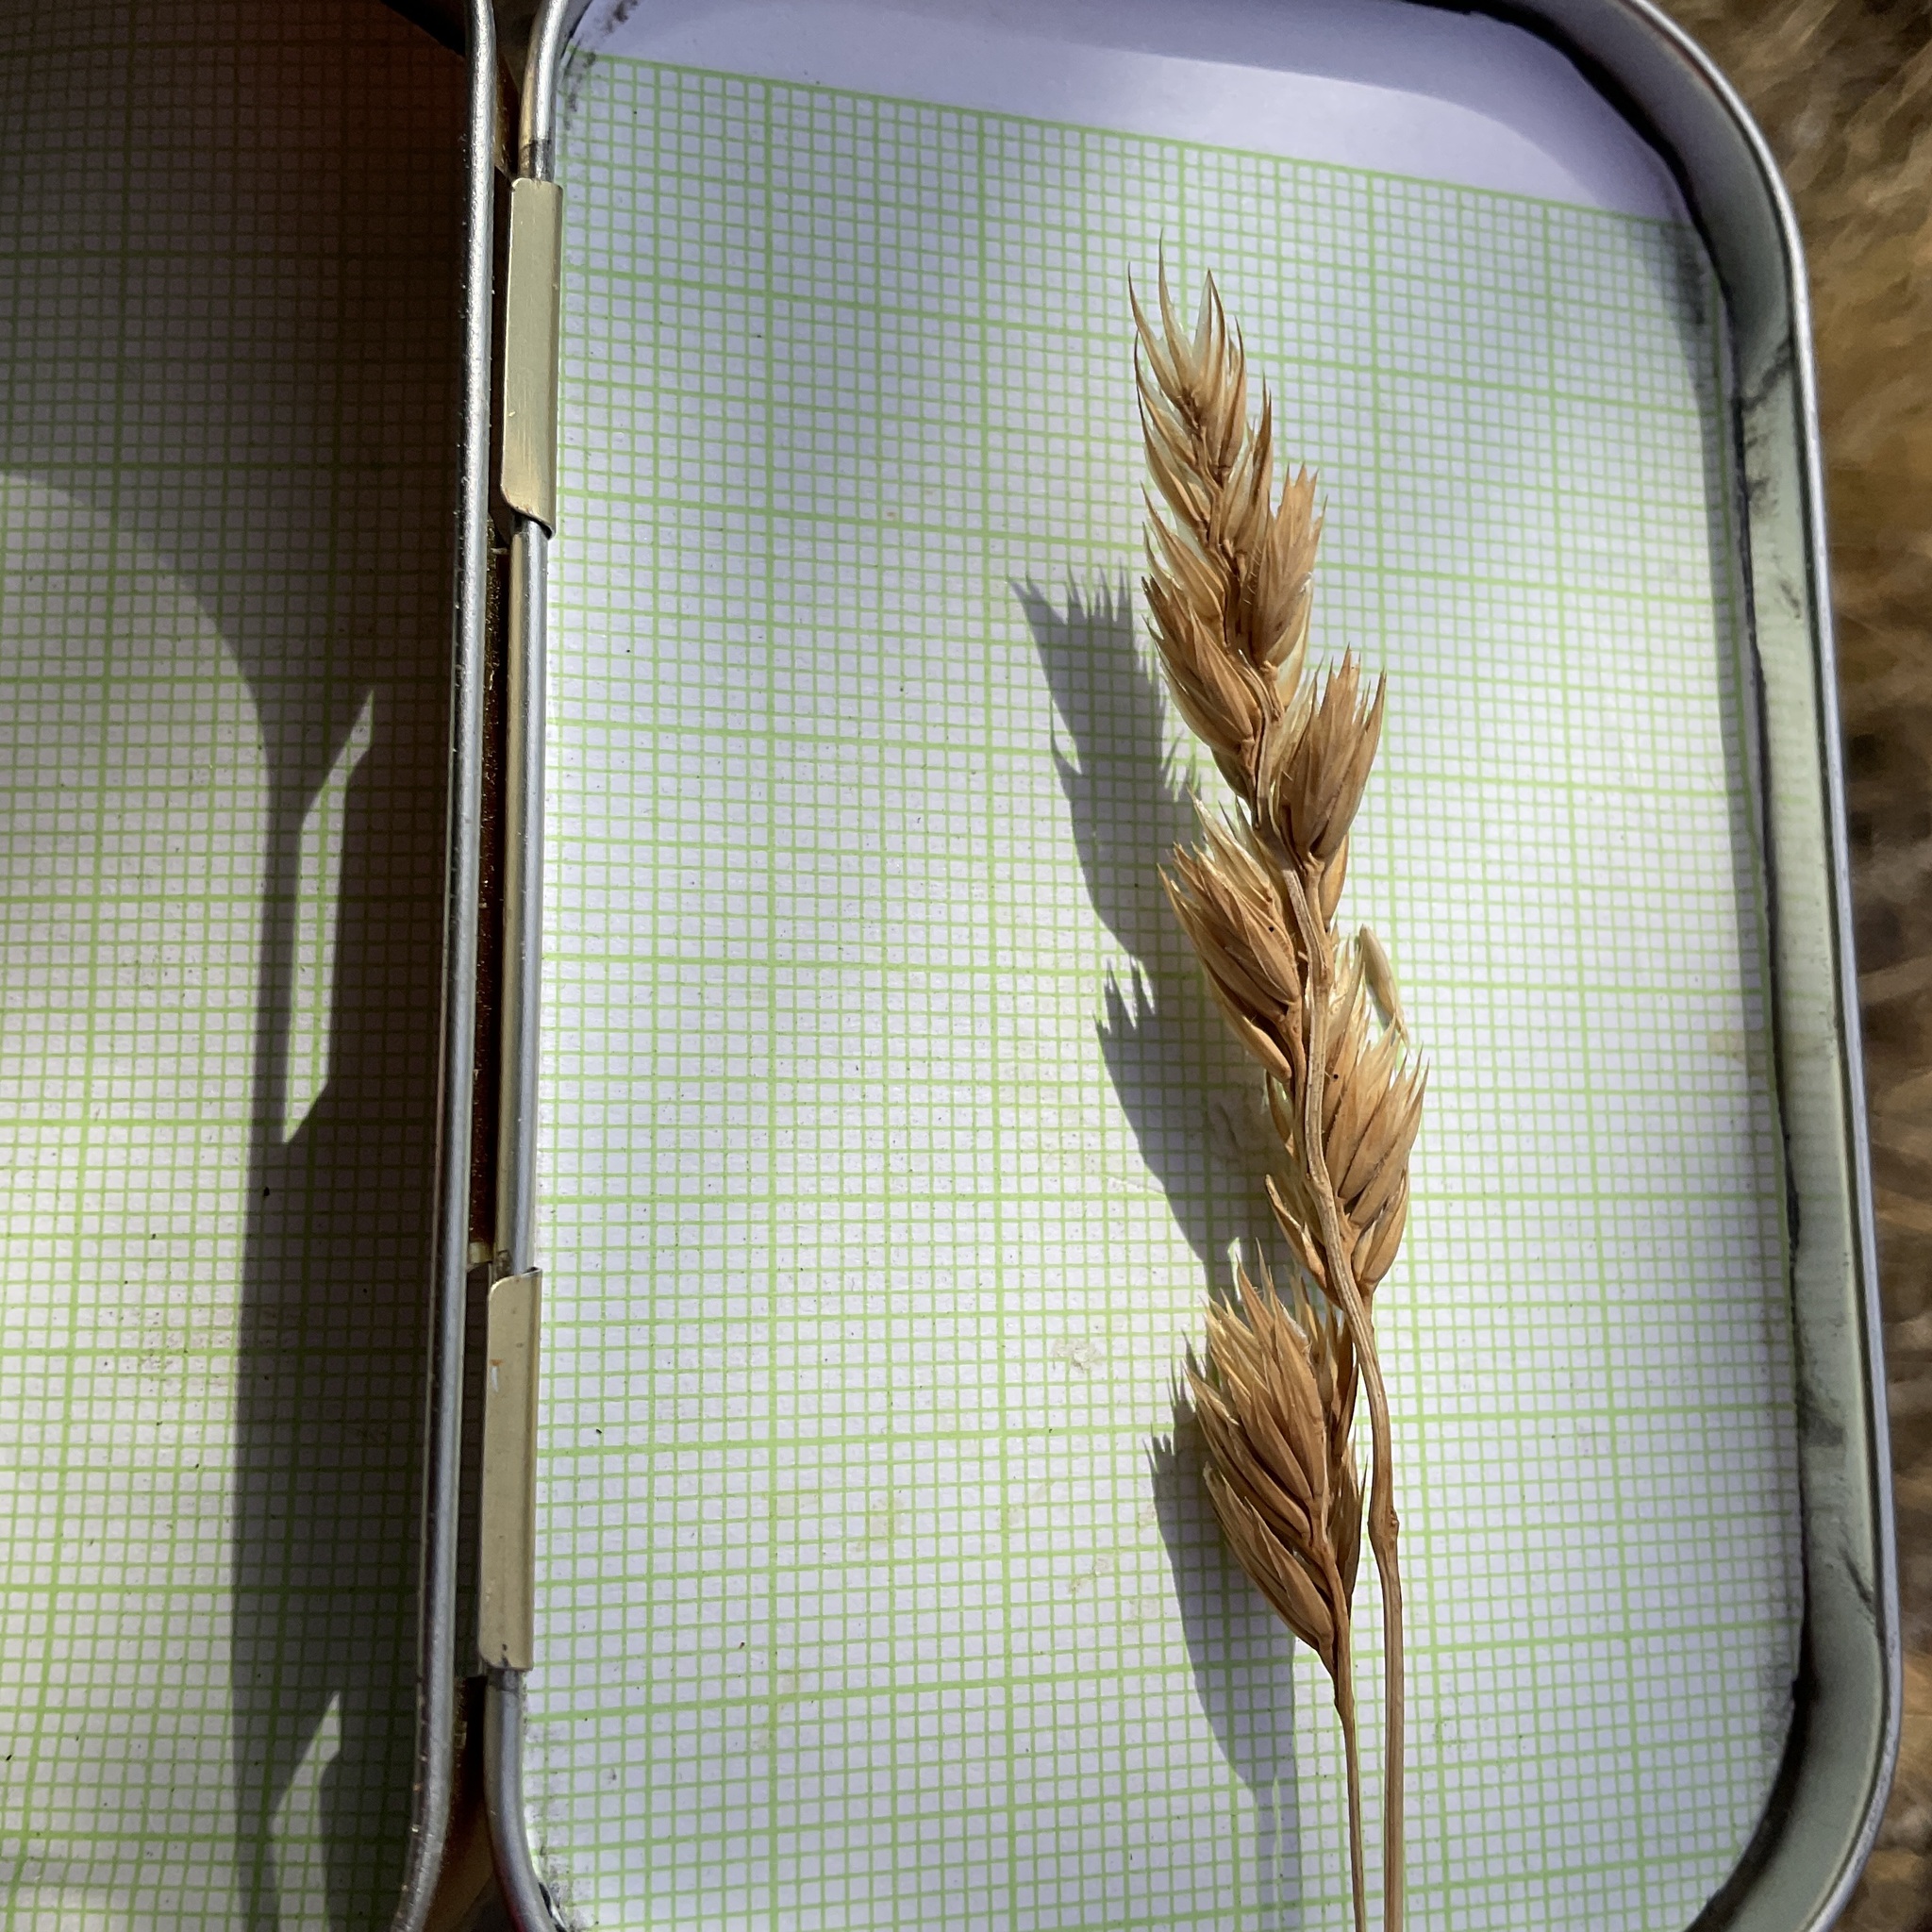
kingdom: Plantae
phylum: Tracheophyta
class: Liliopsida
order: Poales
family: Poaceae
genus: Dactylis
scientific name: Dactylis glomerata
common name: Orchardgrass
